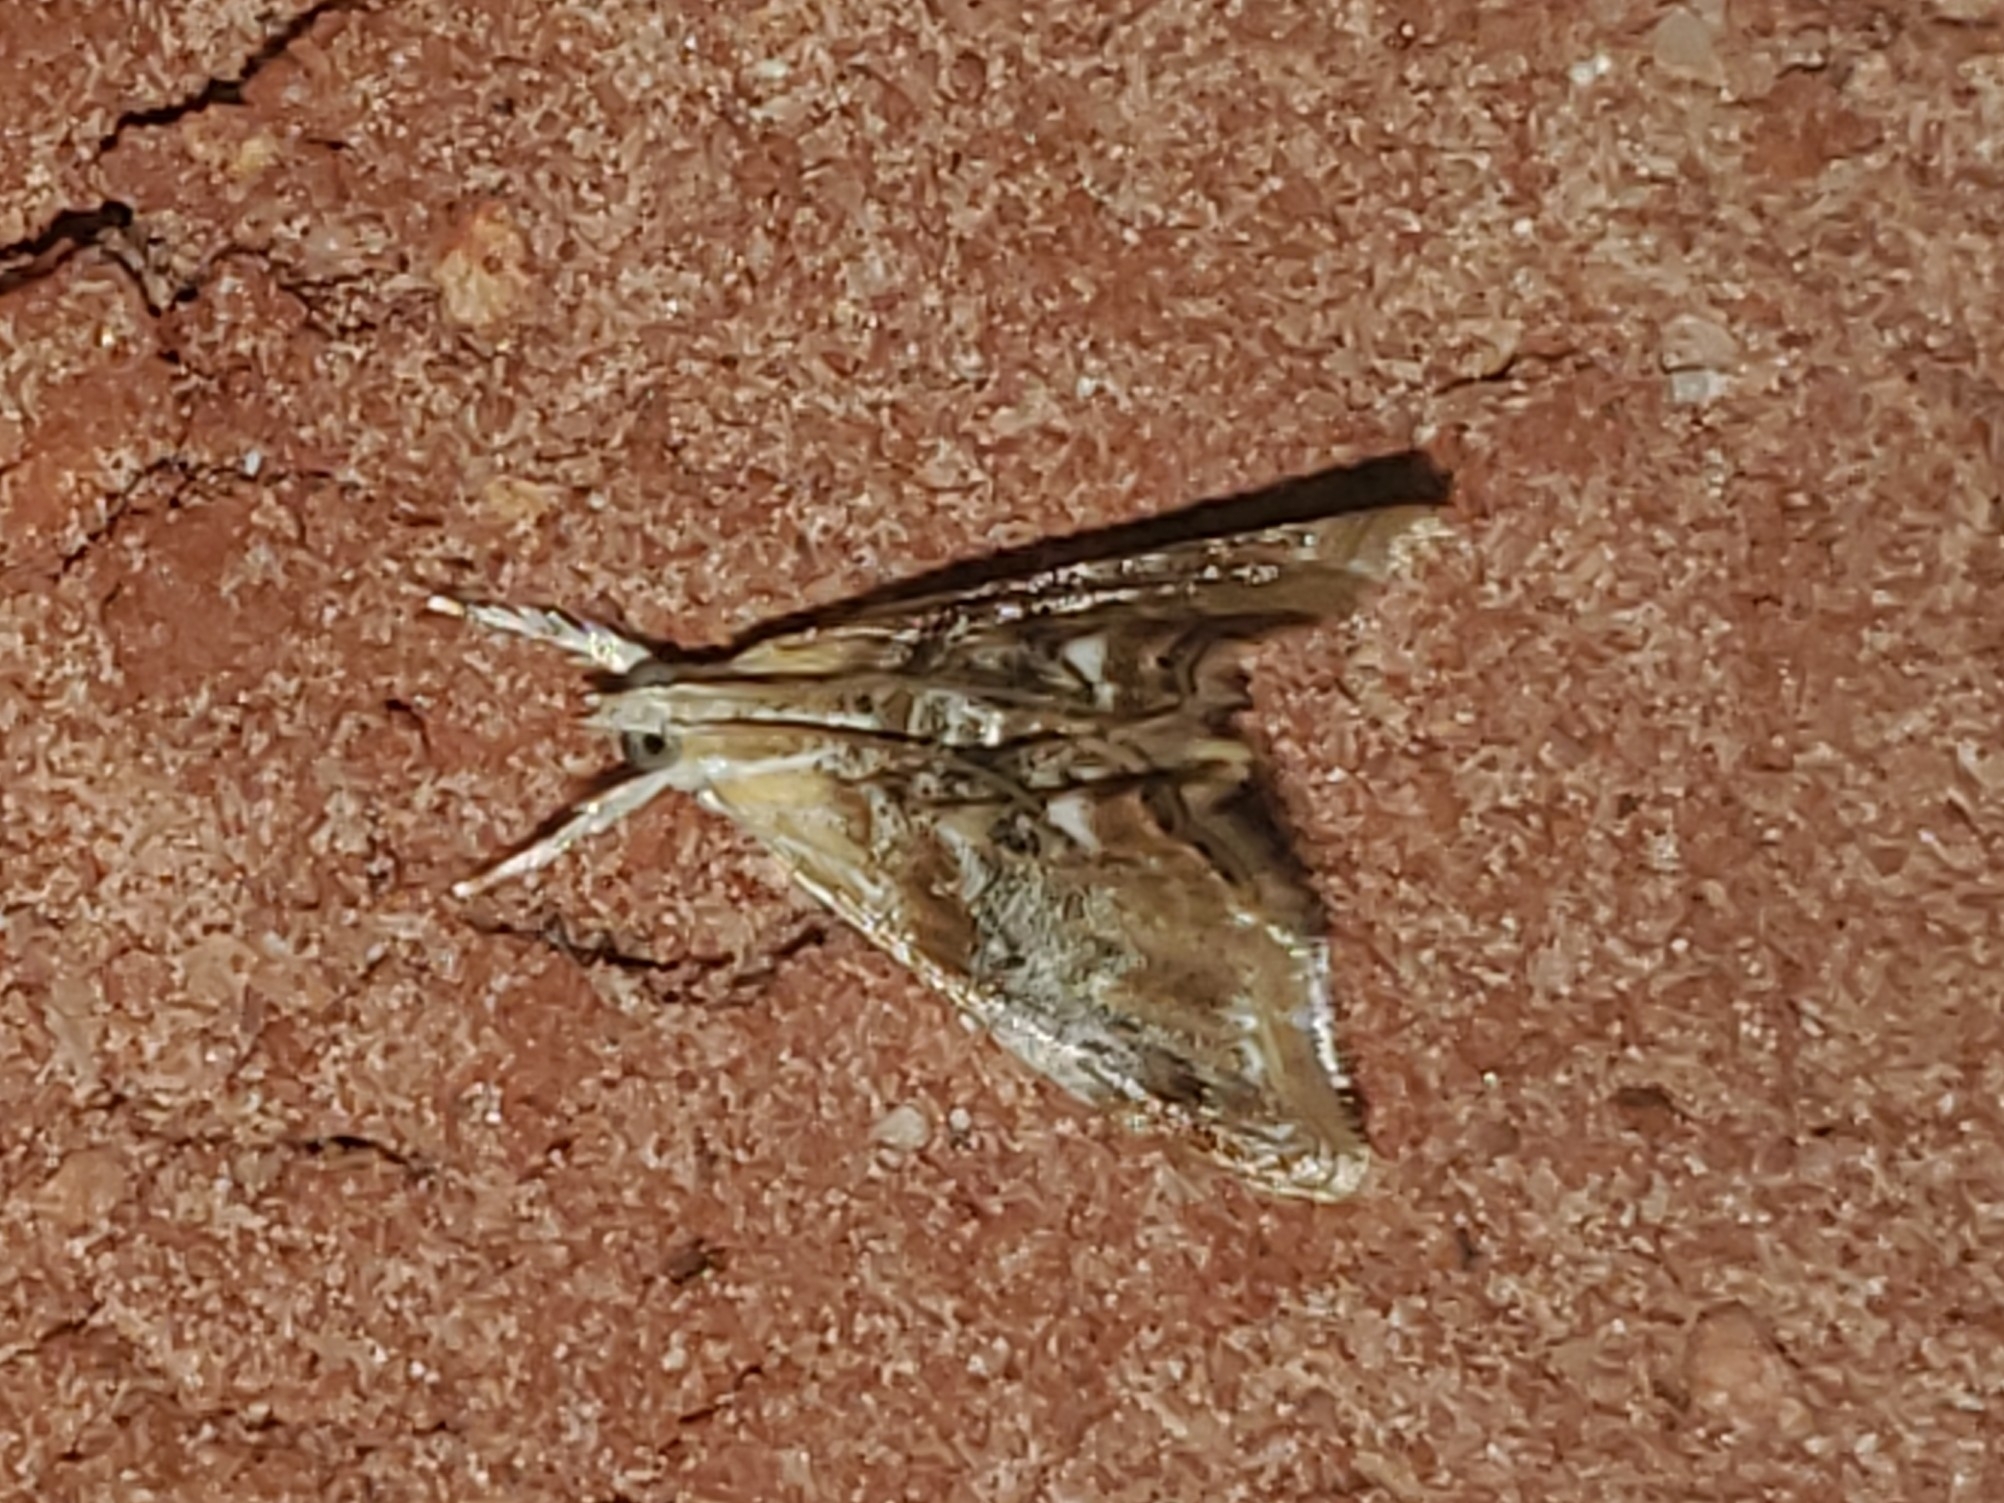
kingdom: Animalia
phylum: Arthropoda
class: Insecta
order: Lepidoptera
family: Crambidae
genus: Dicymolomia
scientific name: Dicymolomia julianalis
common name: Julia's dicymolomia moth
